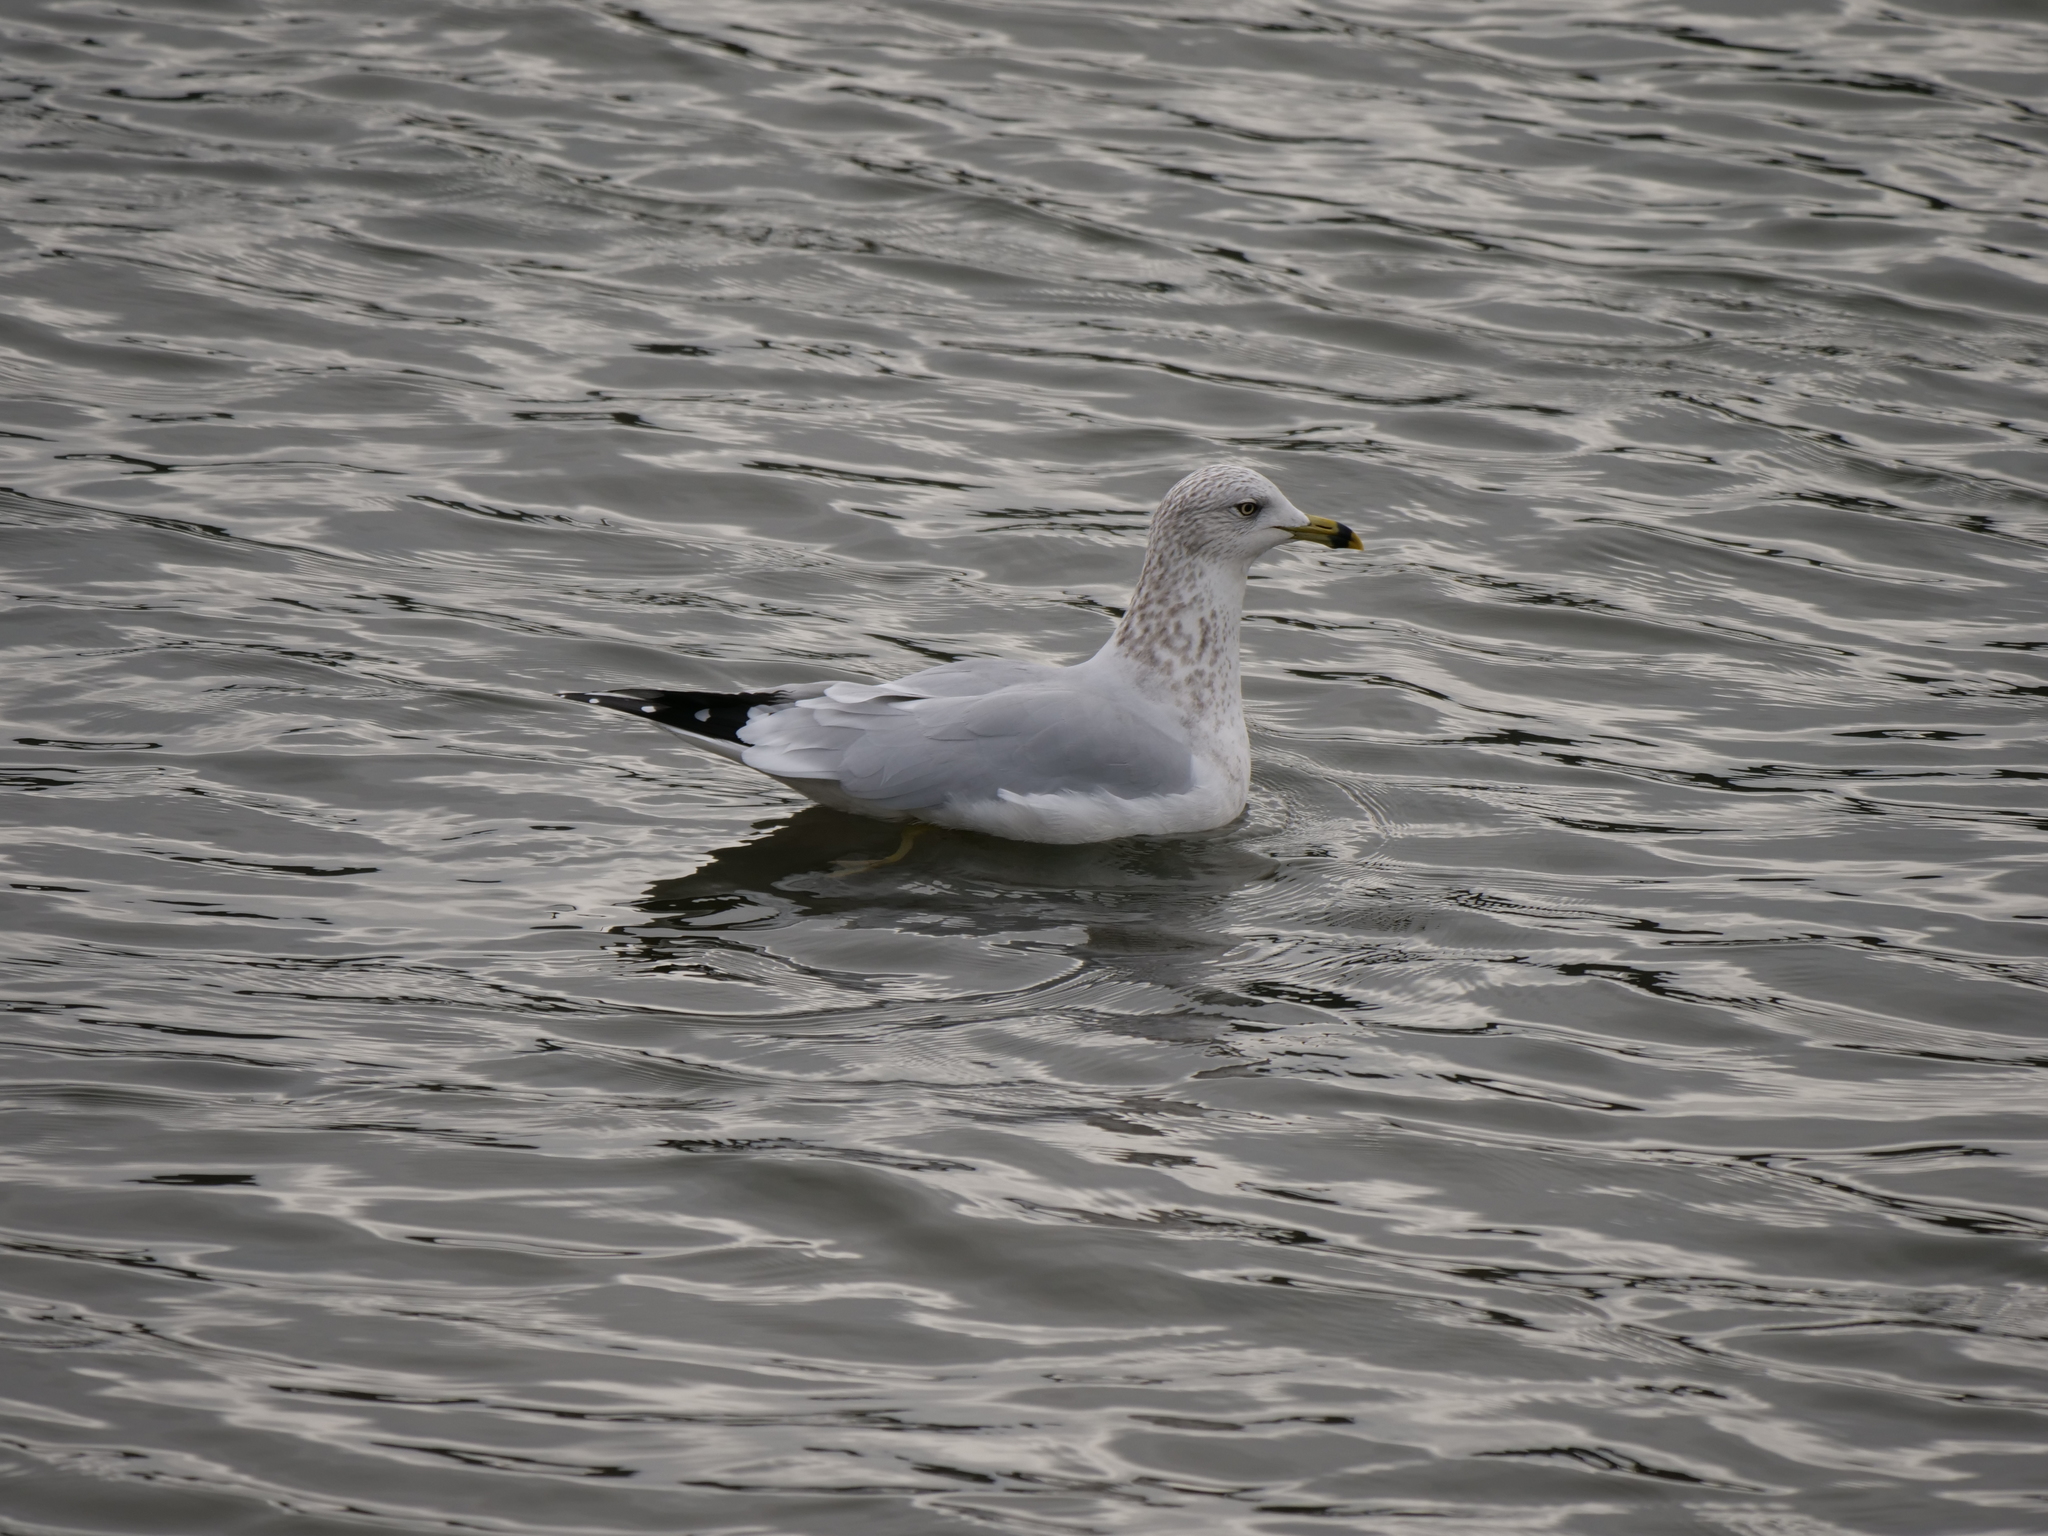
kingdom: Animalia
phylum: Chordata
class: Aves
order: Charadriiformes
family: Laridae
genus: Larus
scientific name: Larus delawarensis
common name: Ring-billed gull
